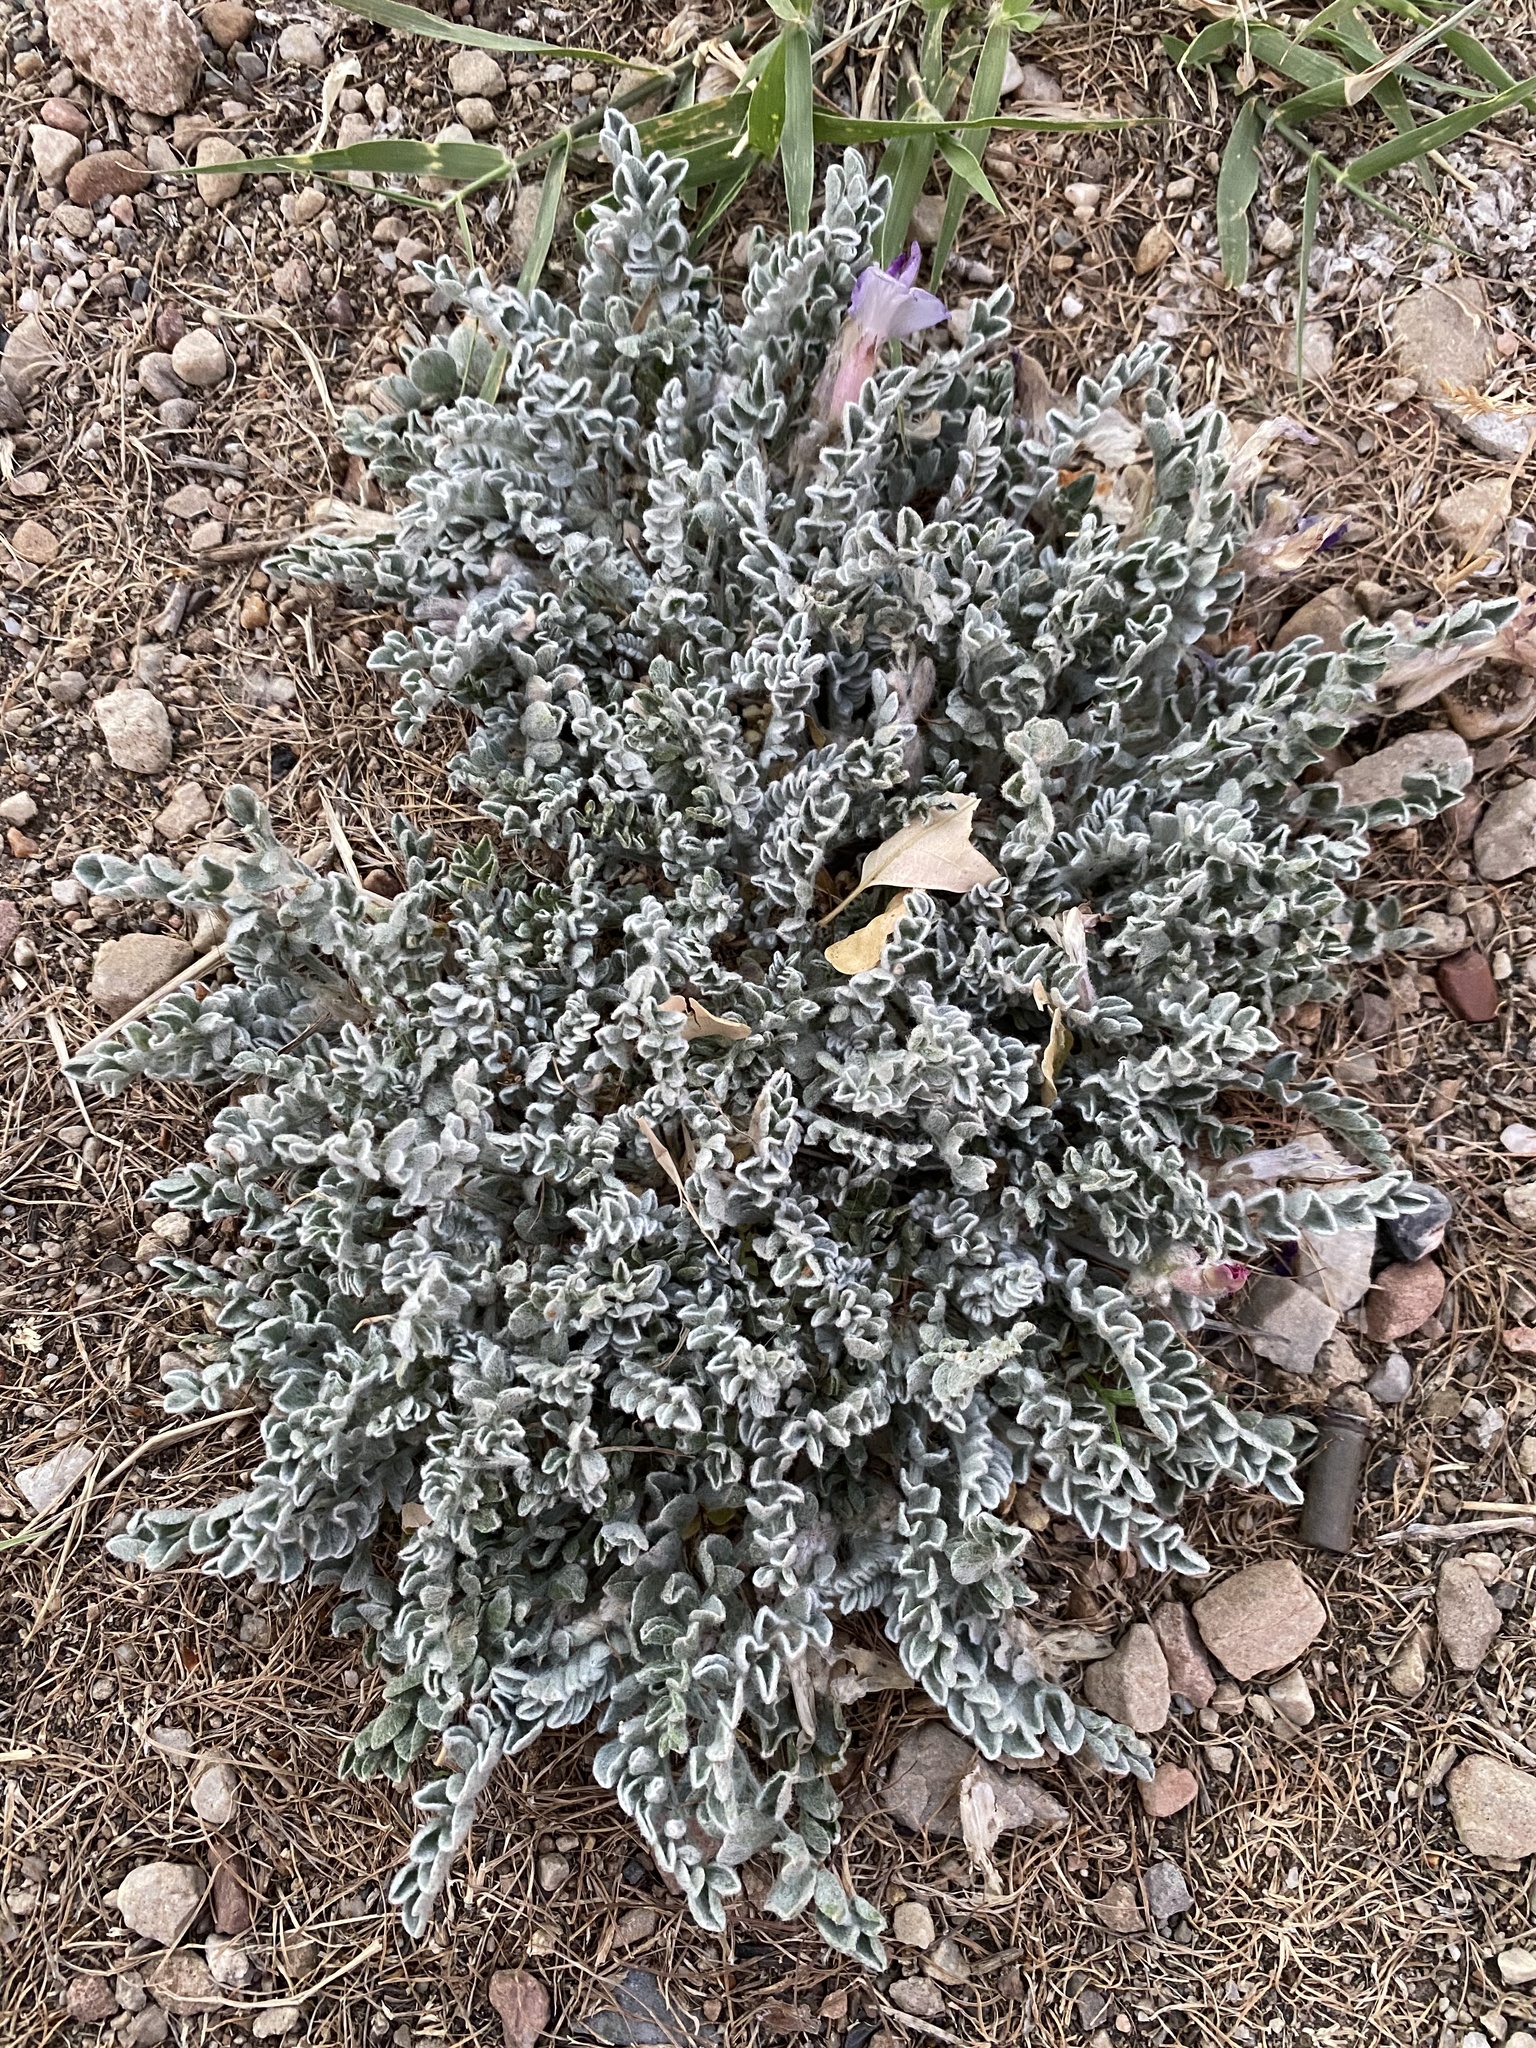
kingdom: Plantae
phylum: Tracheophyta
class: Magnoliopsida
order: Fabales
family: Fabaceae
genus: Astragalus
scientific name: Astragalus utahensis
